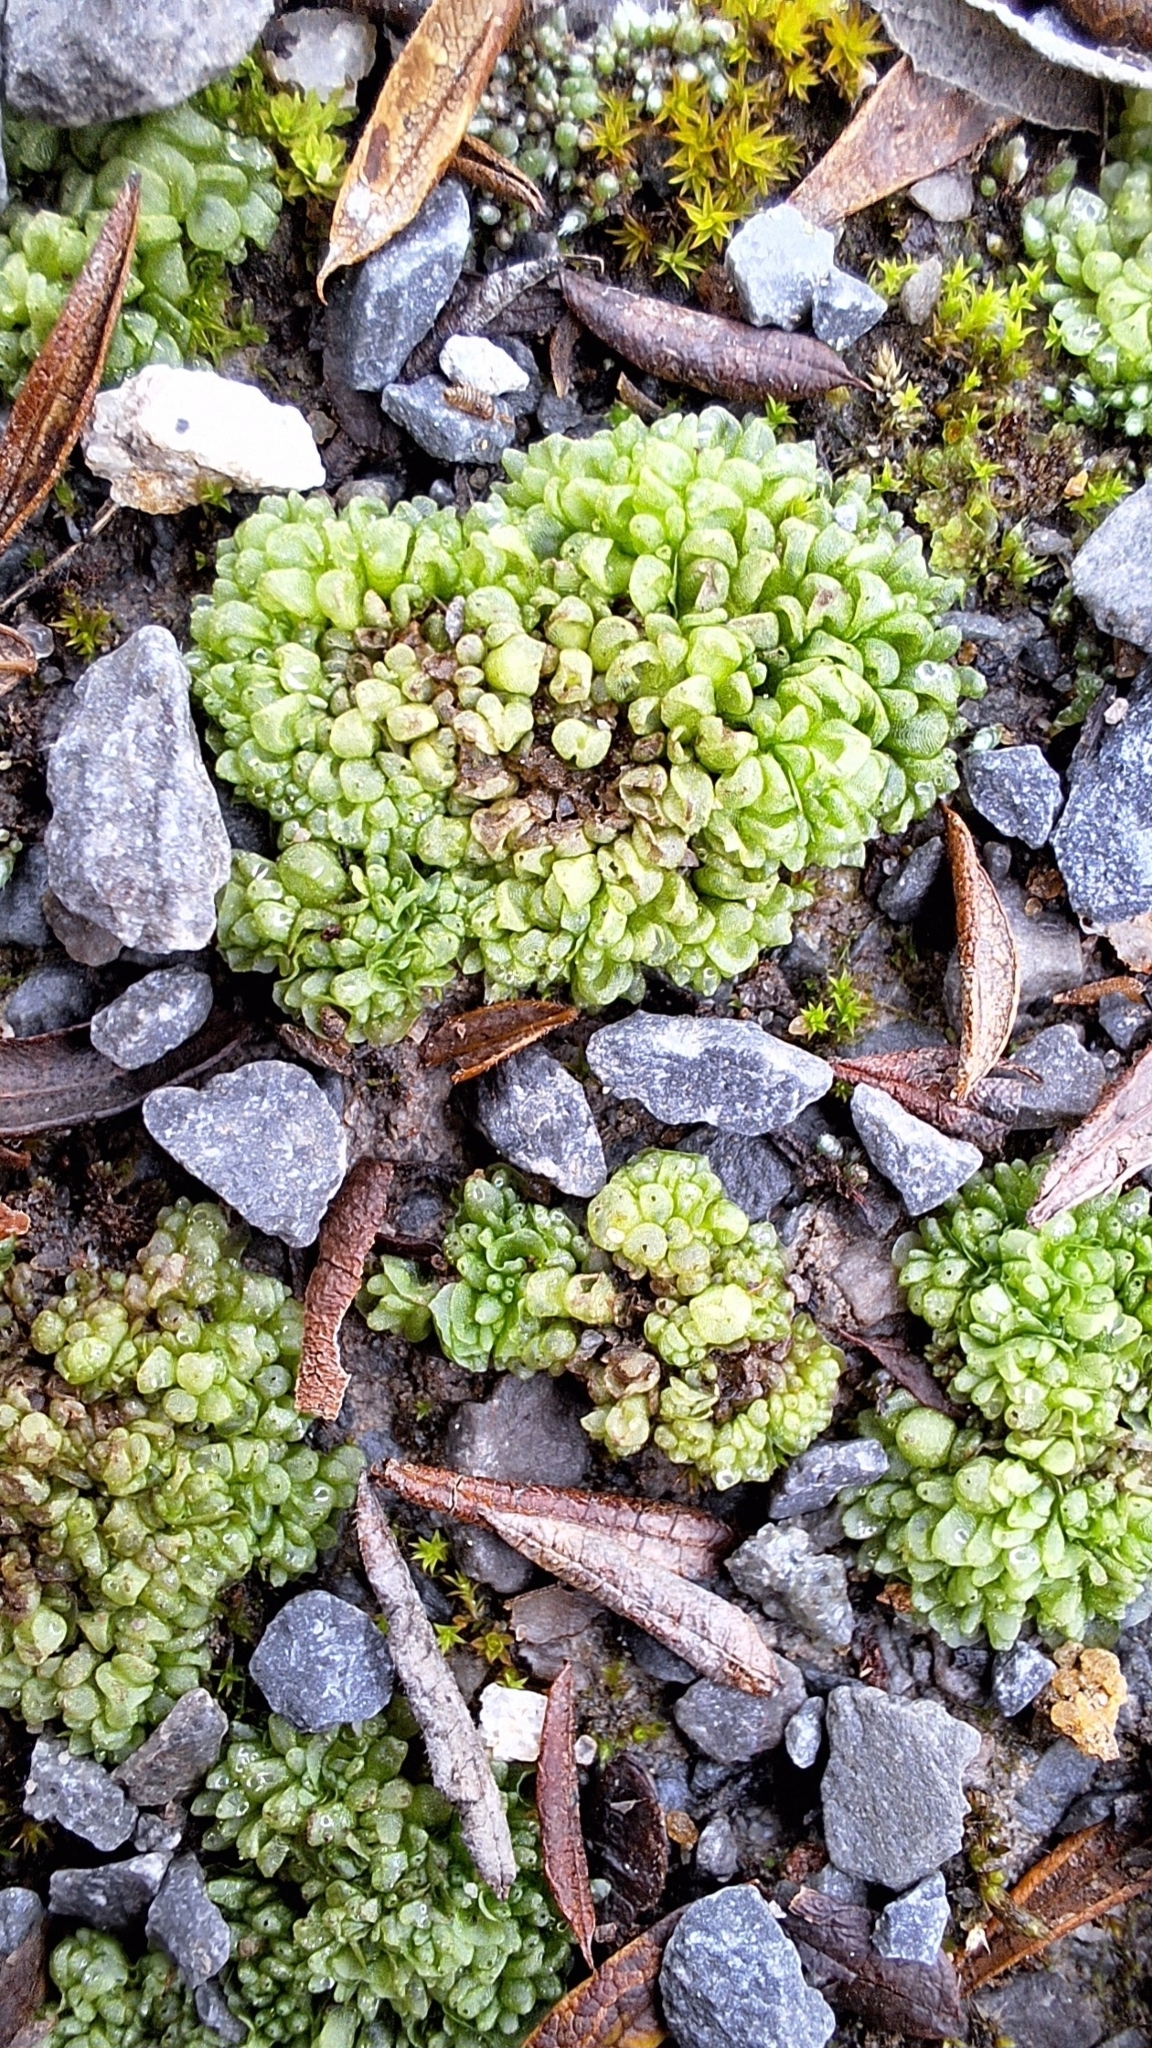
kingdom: Plantae
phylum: Marchantiophyta
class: Marchantiopsida
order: Sphaerocarpales
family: Sphaerocarpaceae
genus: Sphaerocarpos
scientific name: Sphaerocarpos texanus
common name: Texas balloonwort
